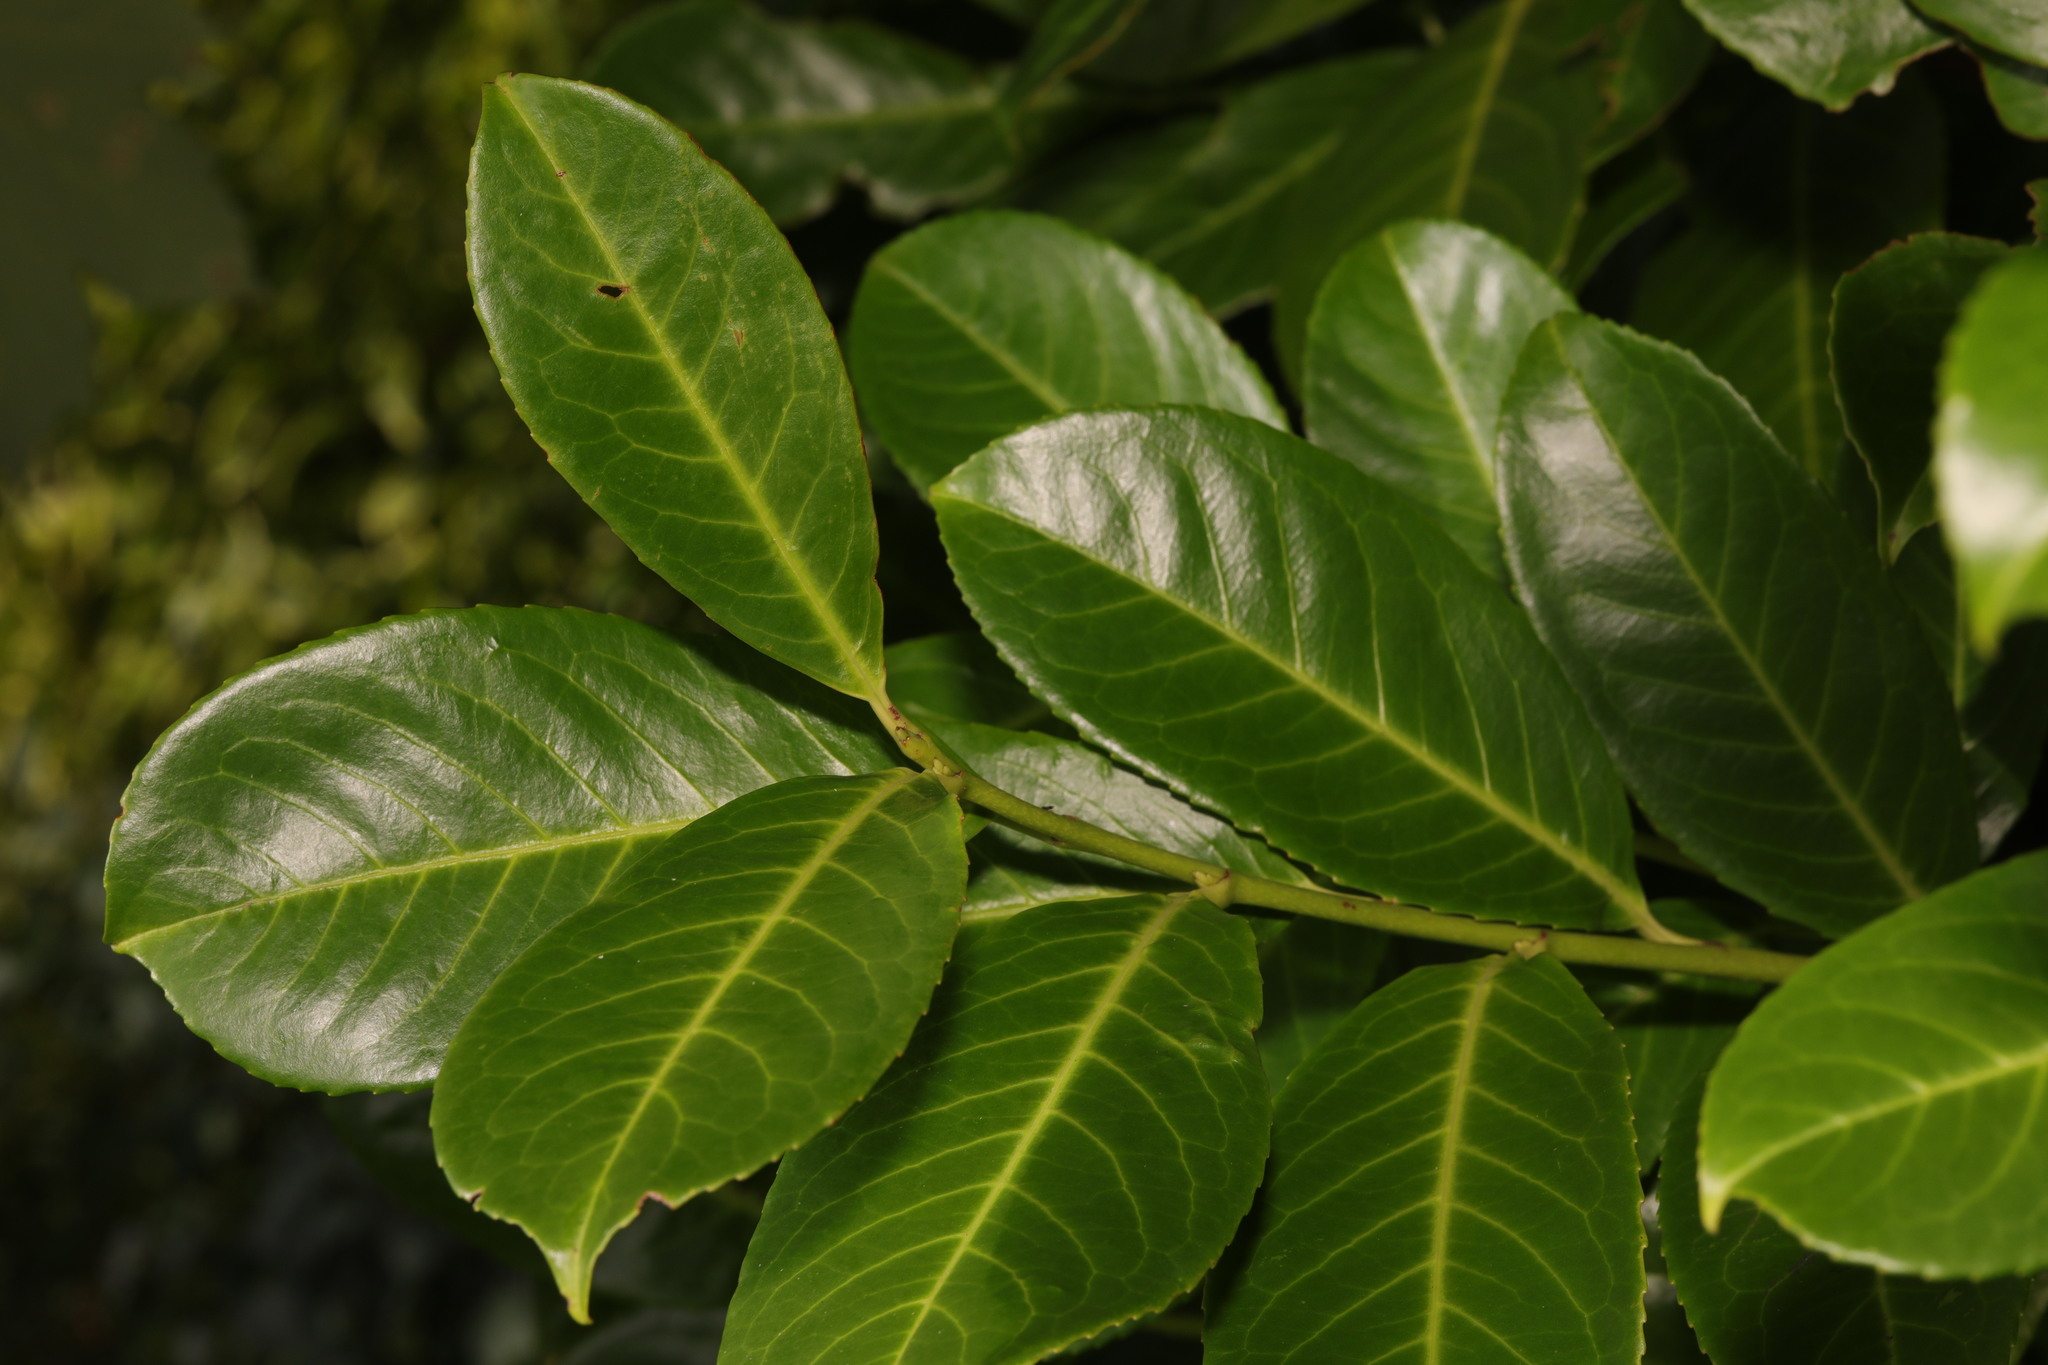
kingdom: Plantae
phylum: Tracheophyta
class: Magnoliopsida
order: Rosales
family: Rosaceae
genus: Prunus
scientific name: Prunus laurocerasus
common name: Cherry laurel
